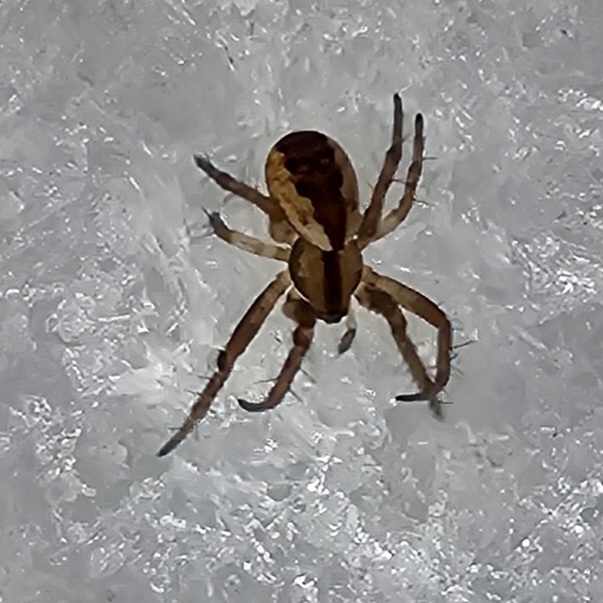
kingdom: Animalia
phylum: Arthropoda
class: Arachnida
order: Araneae
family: Araneidae
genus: Mangora
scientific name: Mangora placida
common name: Tuft-legged orbweaver
